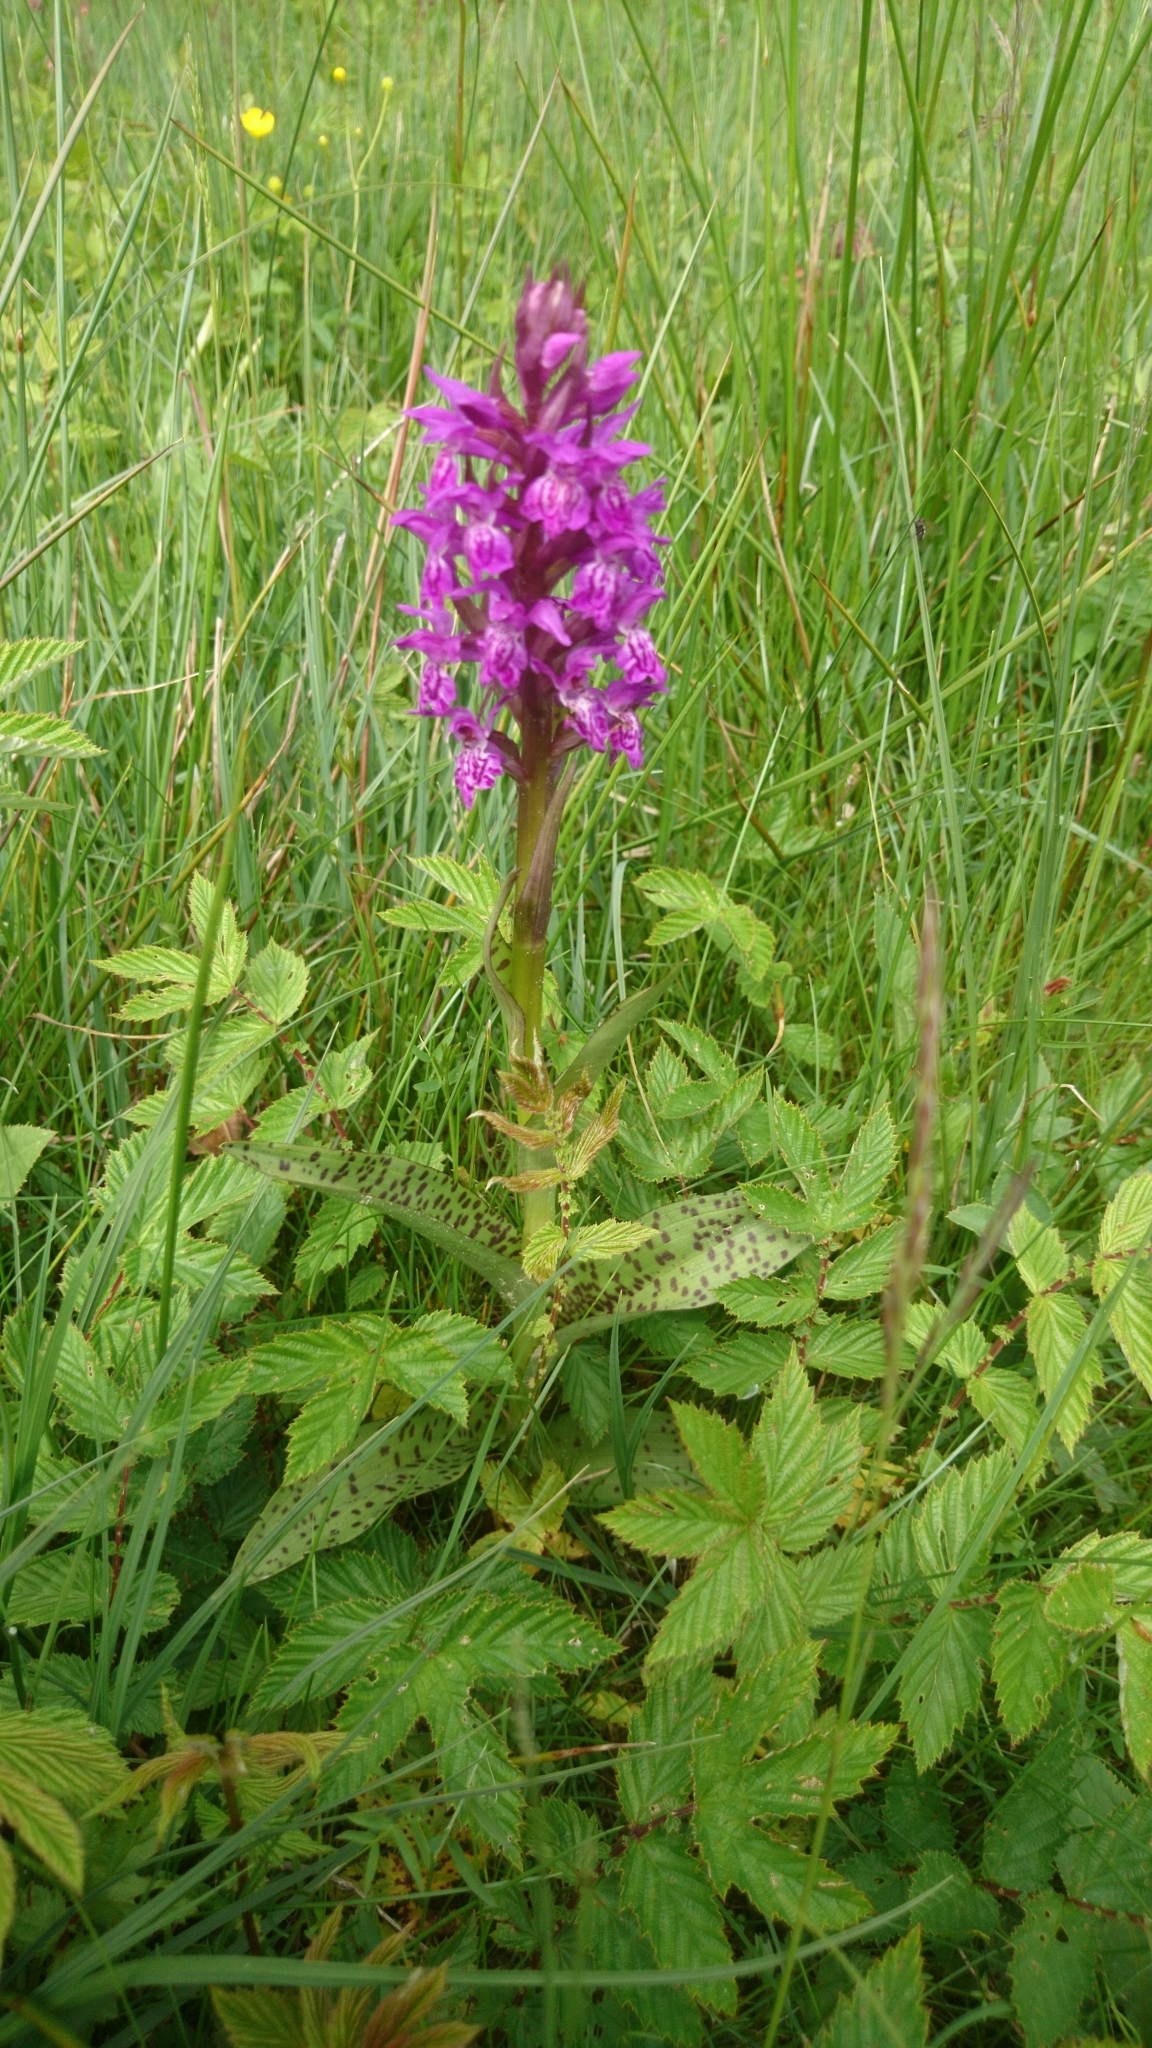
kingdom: Plantae
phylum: Tracheophyta
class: Liliopsida
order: Asparagales
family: Orchidaceae
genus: Dactylorhiza
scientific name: Dactylorhiza majalis
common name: Marsh orchid
